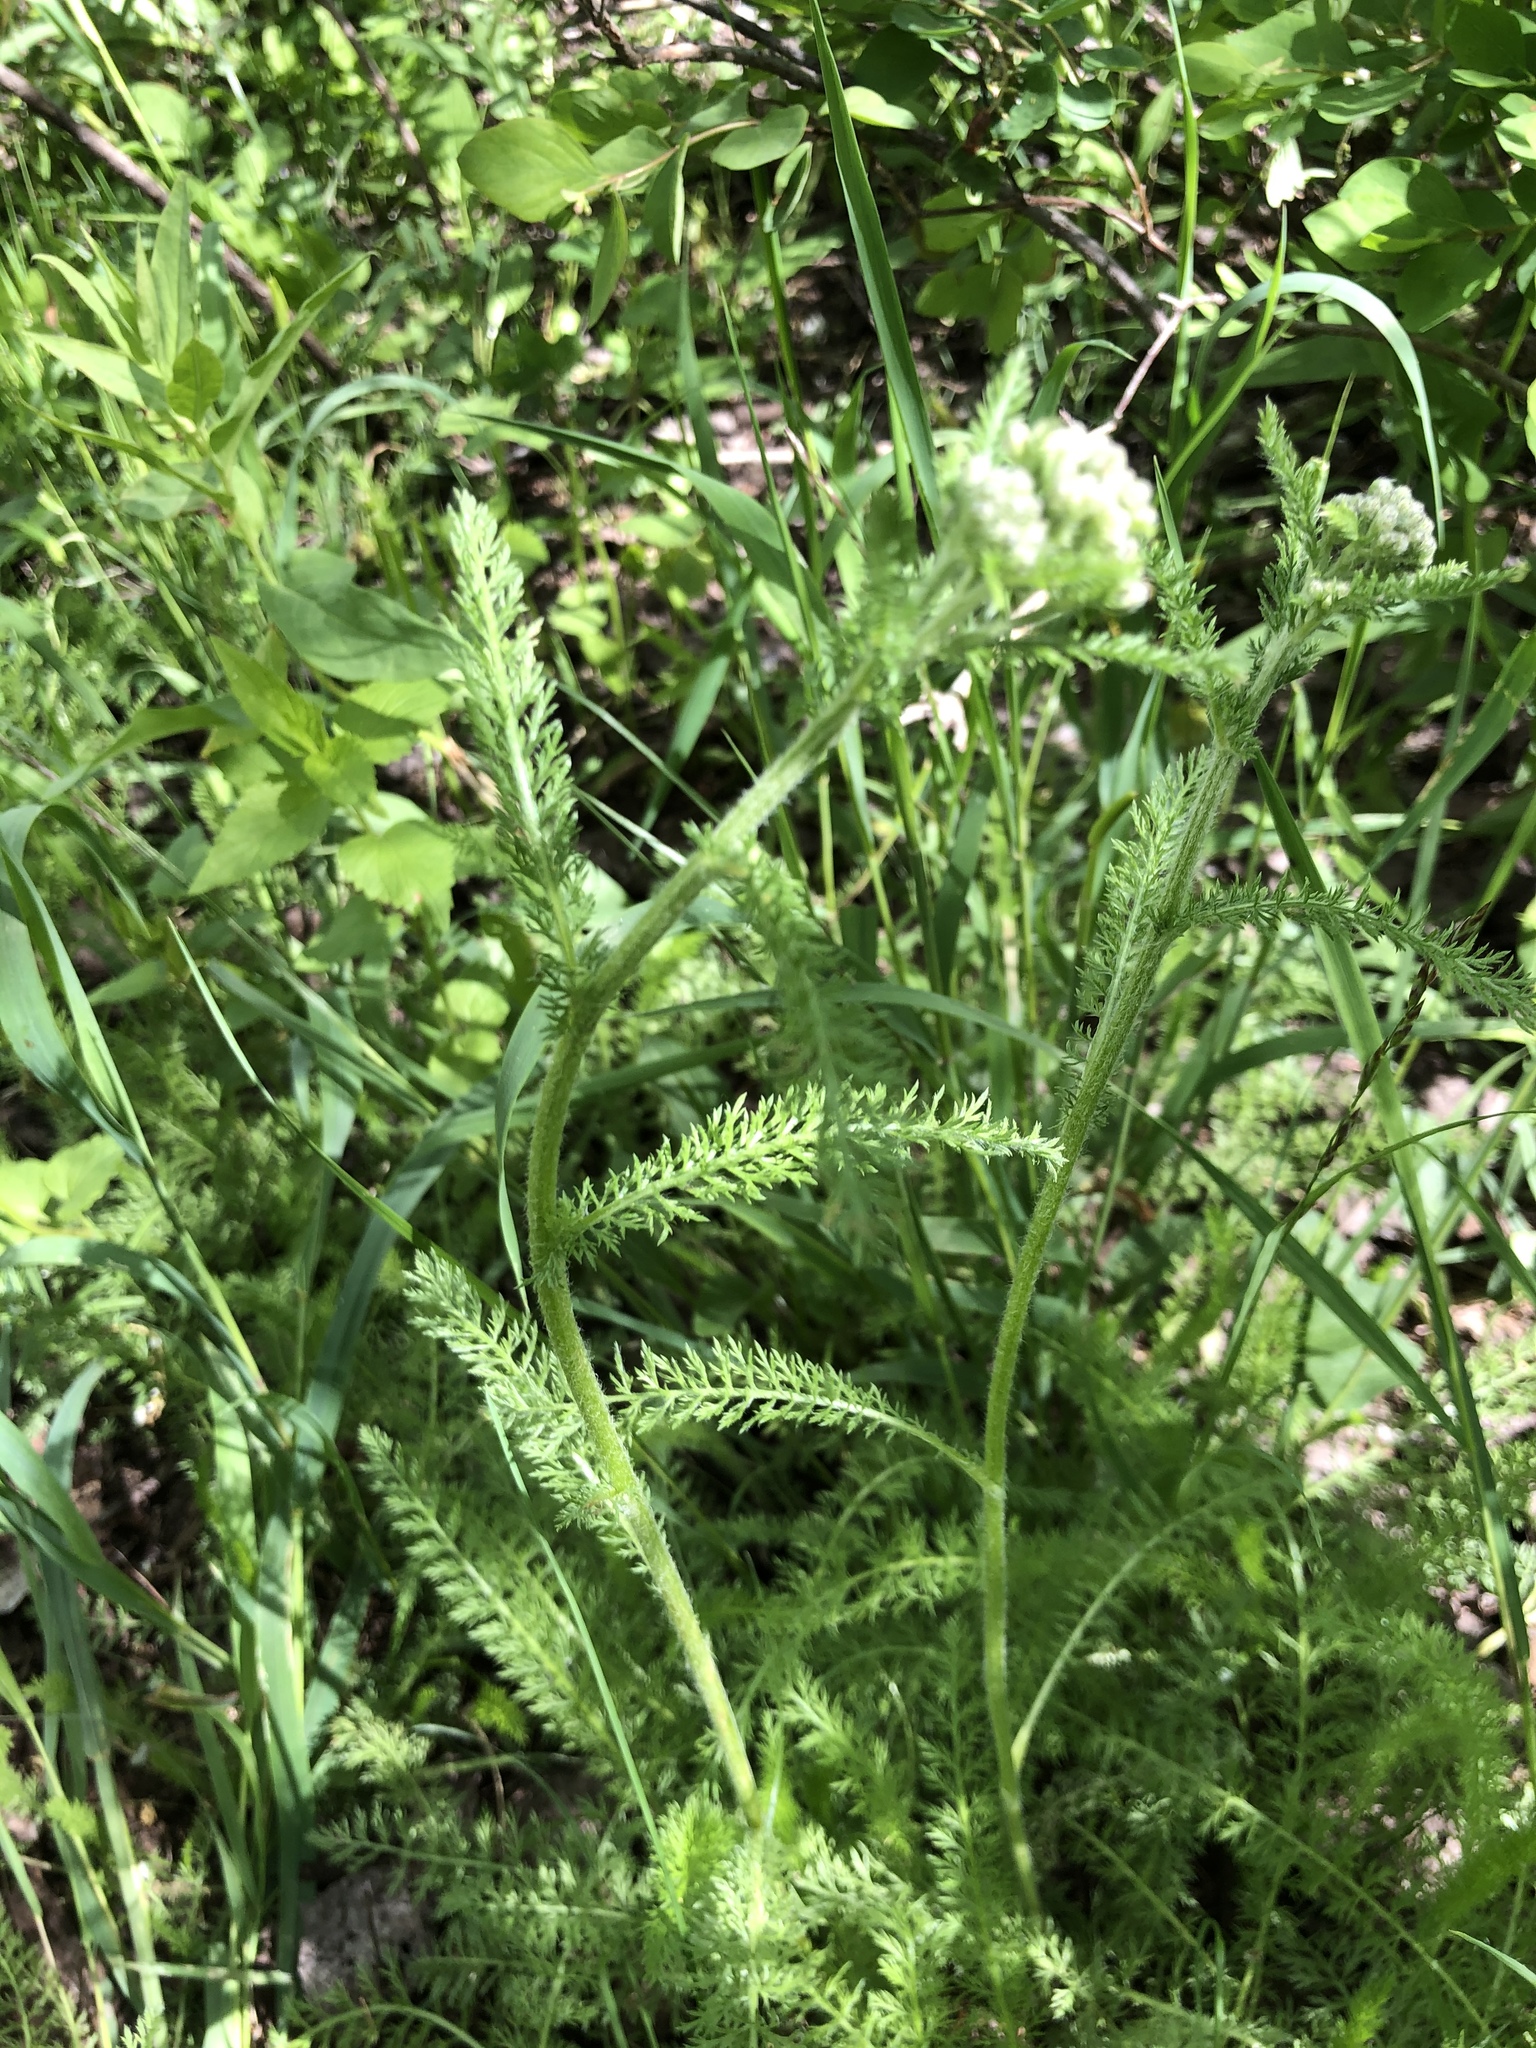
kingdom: Plantae
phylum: Tracheophyta
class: Magnoliopsida
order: Asterales
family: Asteraceae
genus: Achillea
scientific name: Achillea millefolium
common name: Yarrow
